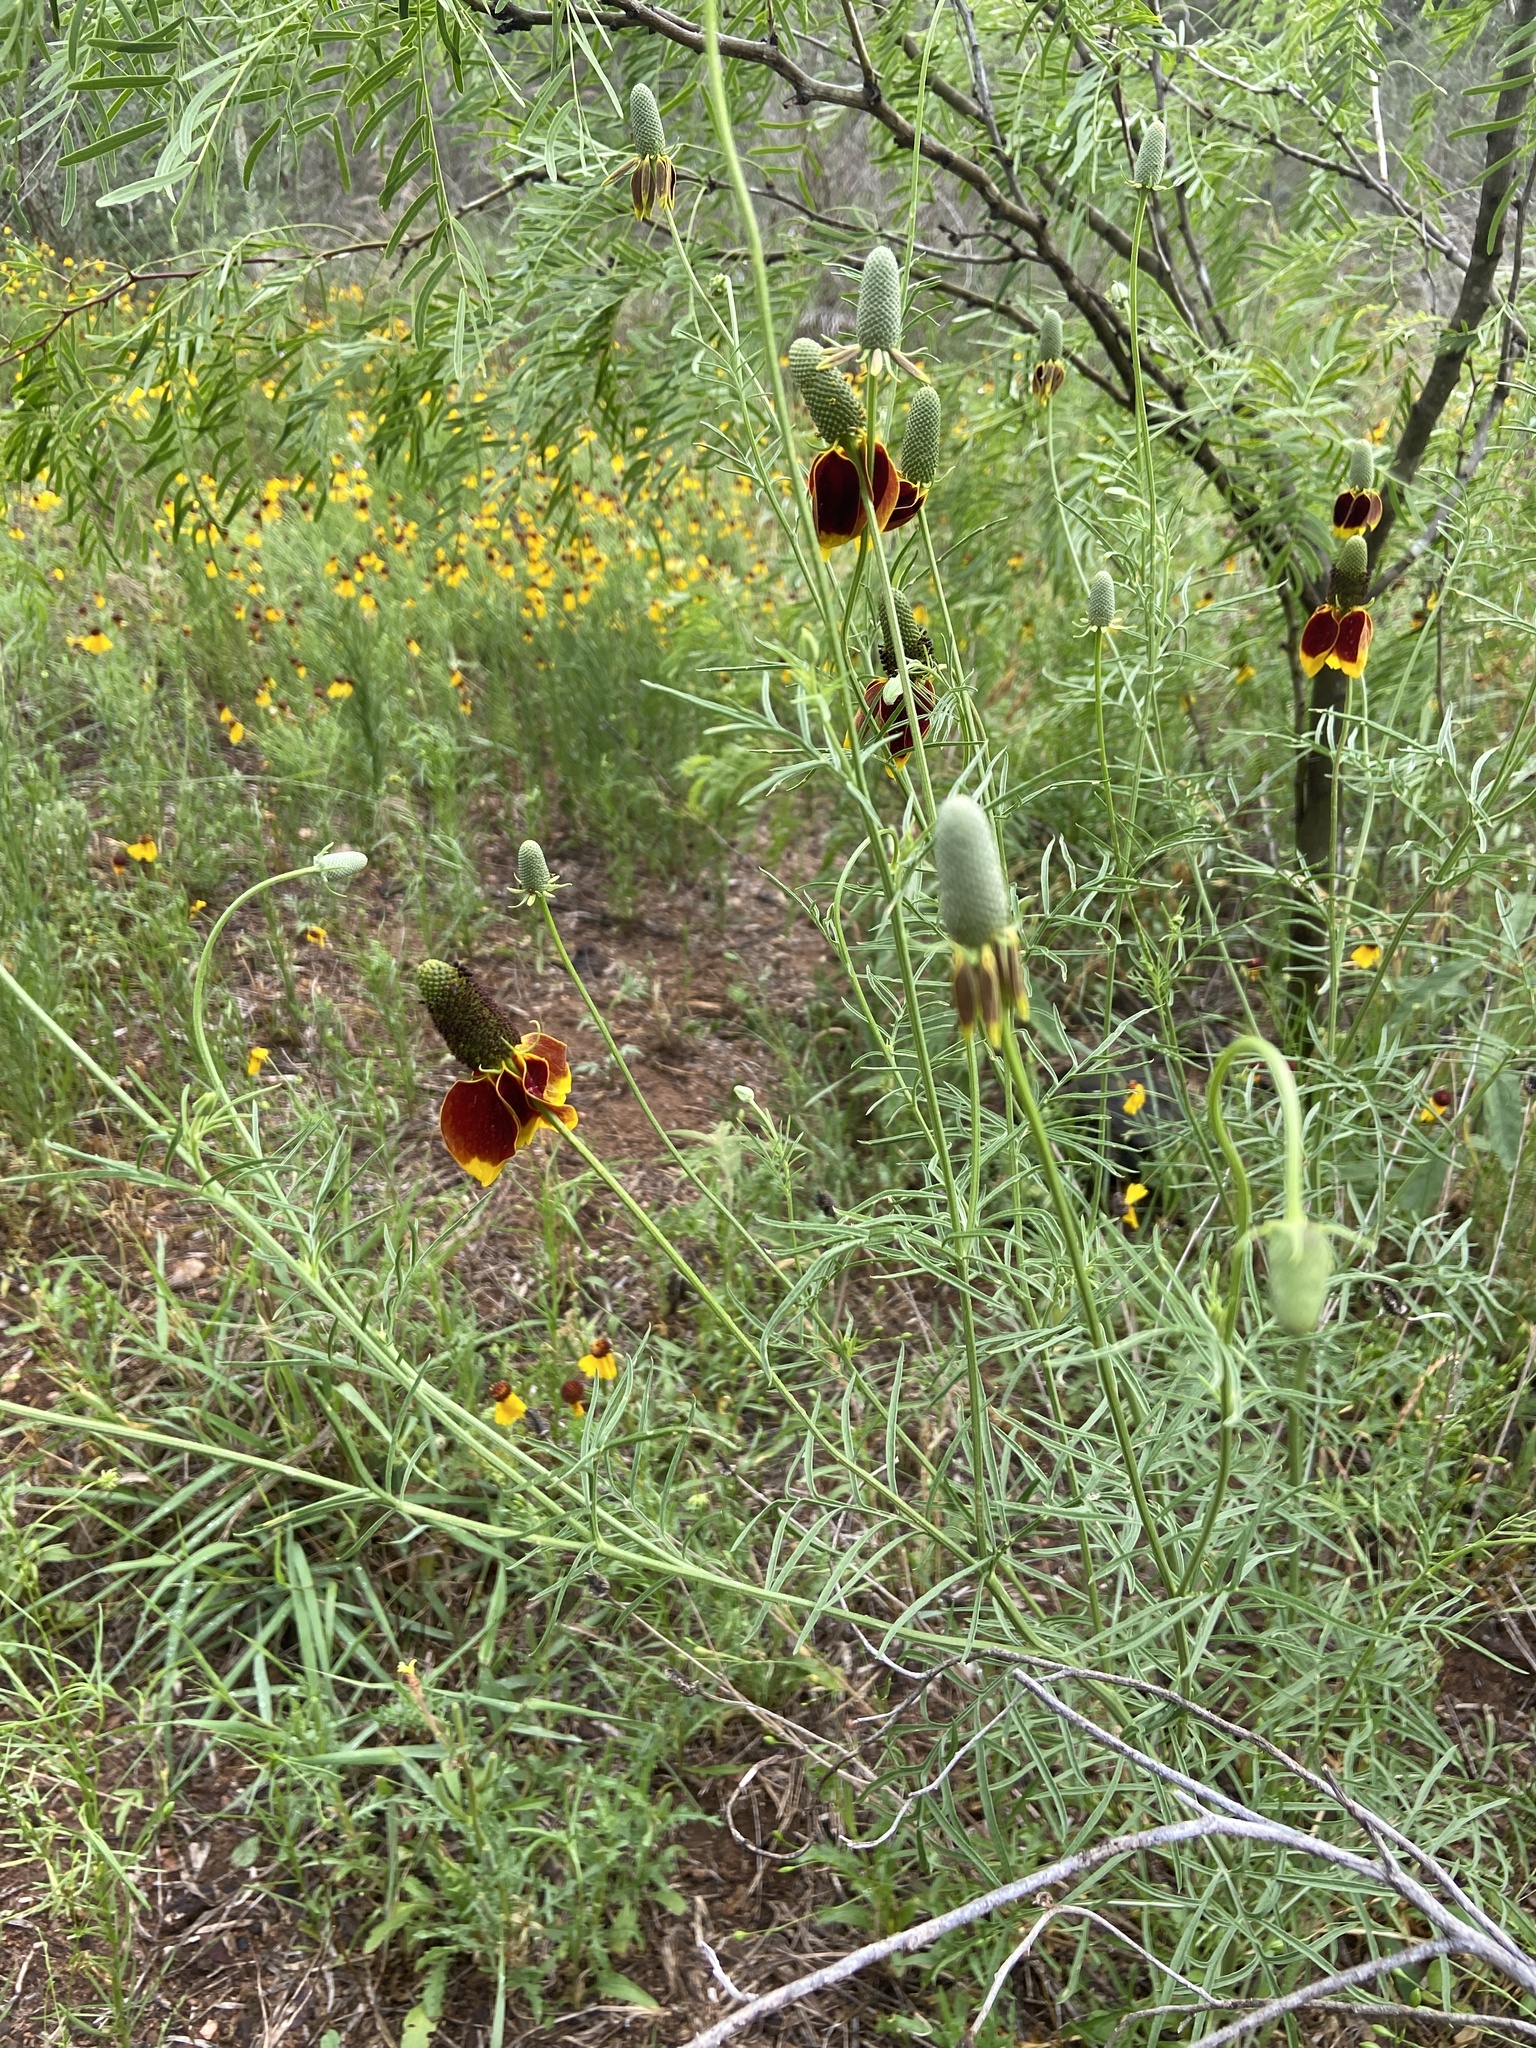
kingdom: Plantae
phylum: Tracheophyta
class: Magnoliopsida
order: Asterales
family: Asteraceae
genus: Ratibida
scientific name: Ratibida columnifera
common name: Prairie coneflower
